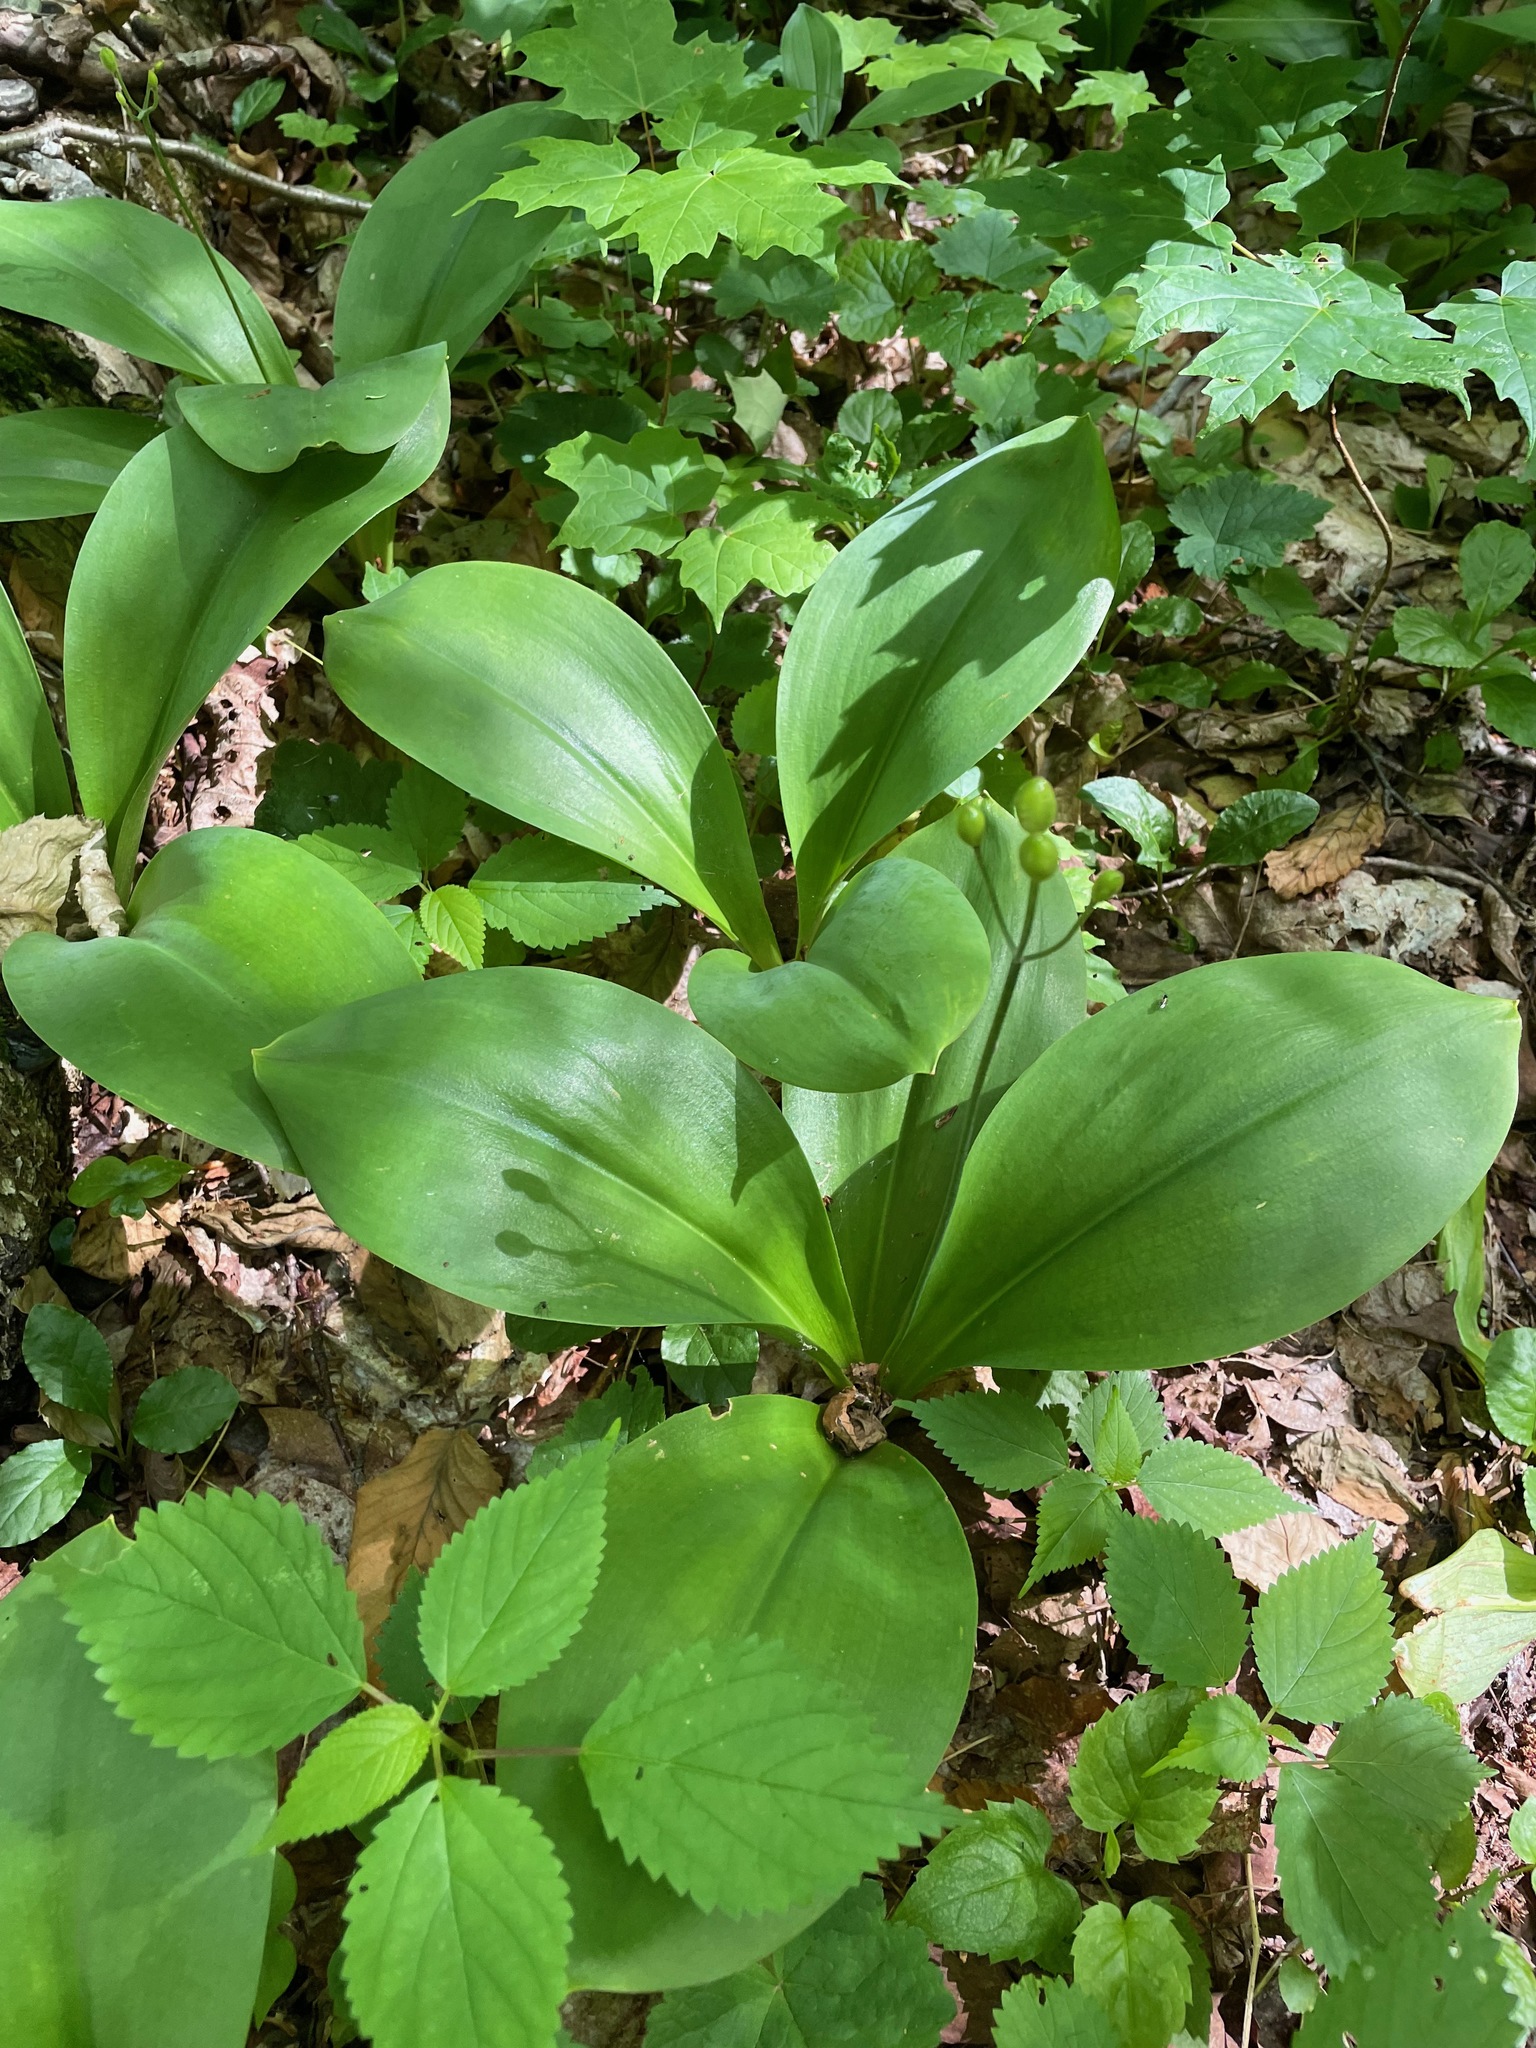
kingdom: Plantae
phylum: Tracheophyta
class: Liliopsida
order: Liliales
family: Liliaceae
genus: Clintonia
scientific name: Clintonia borealis
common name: Yellow clintonia
